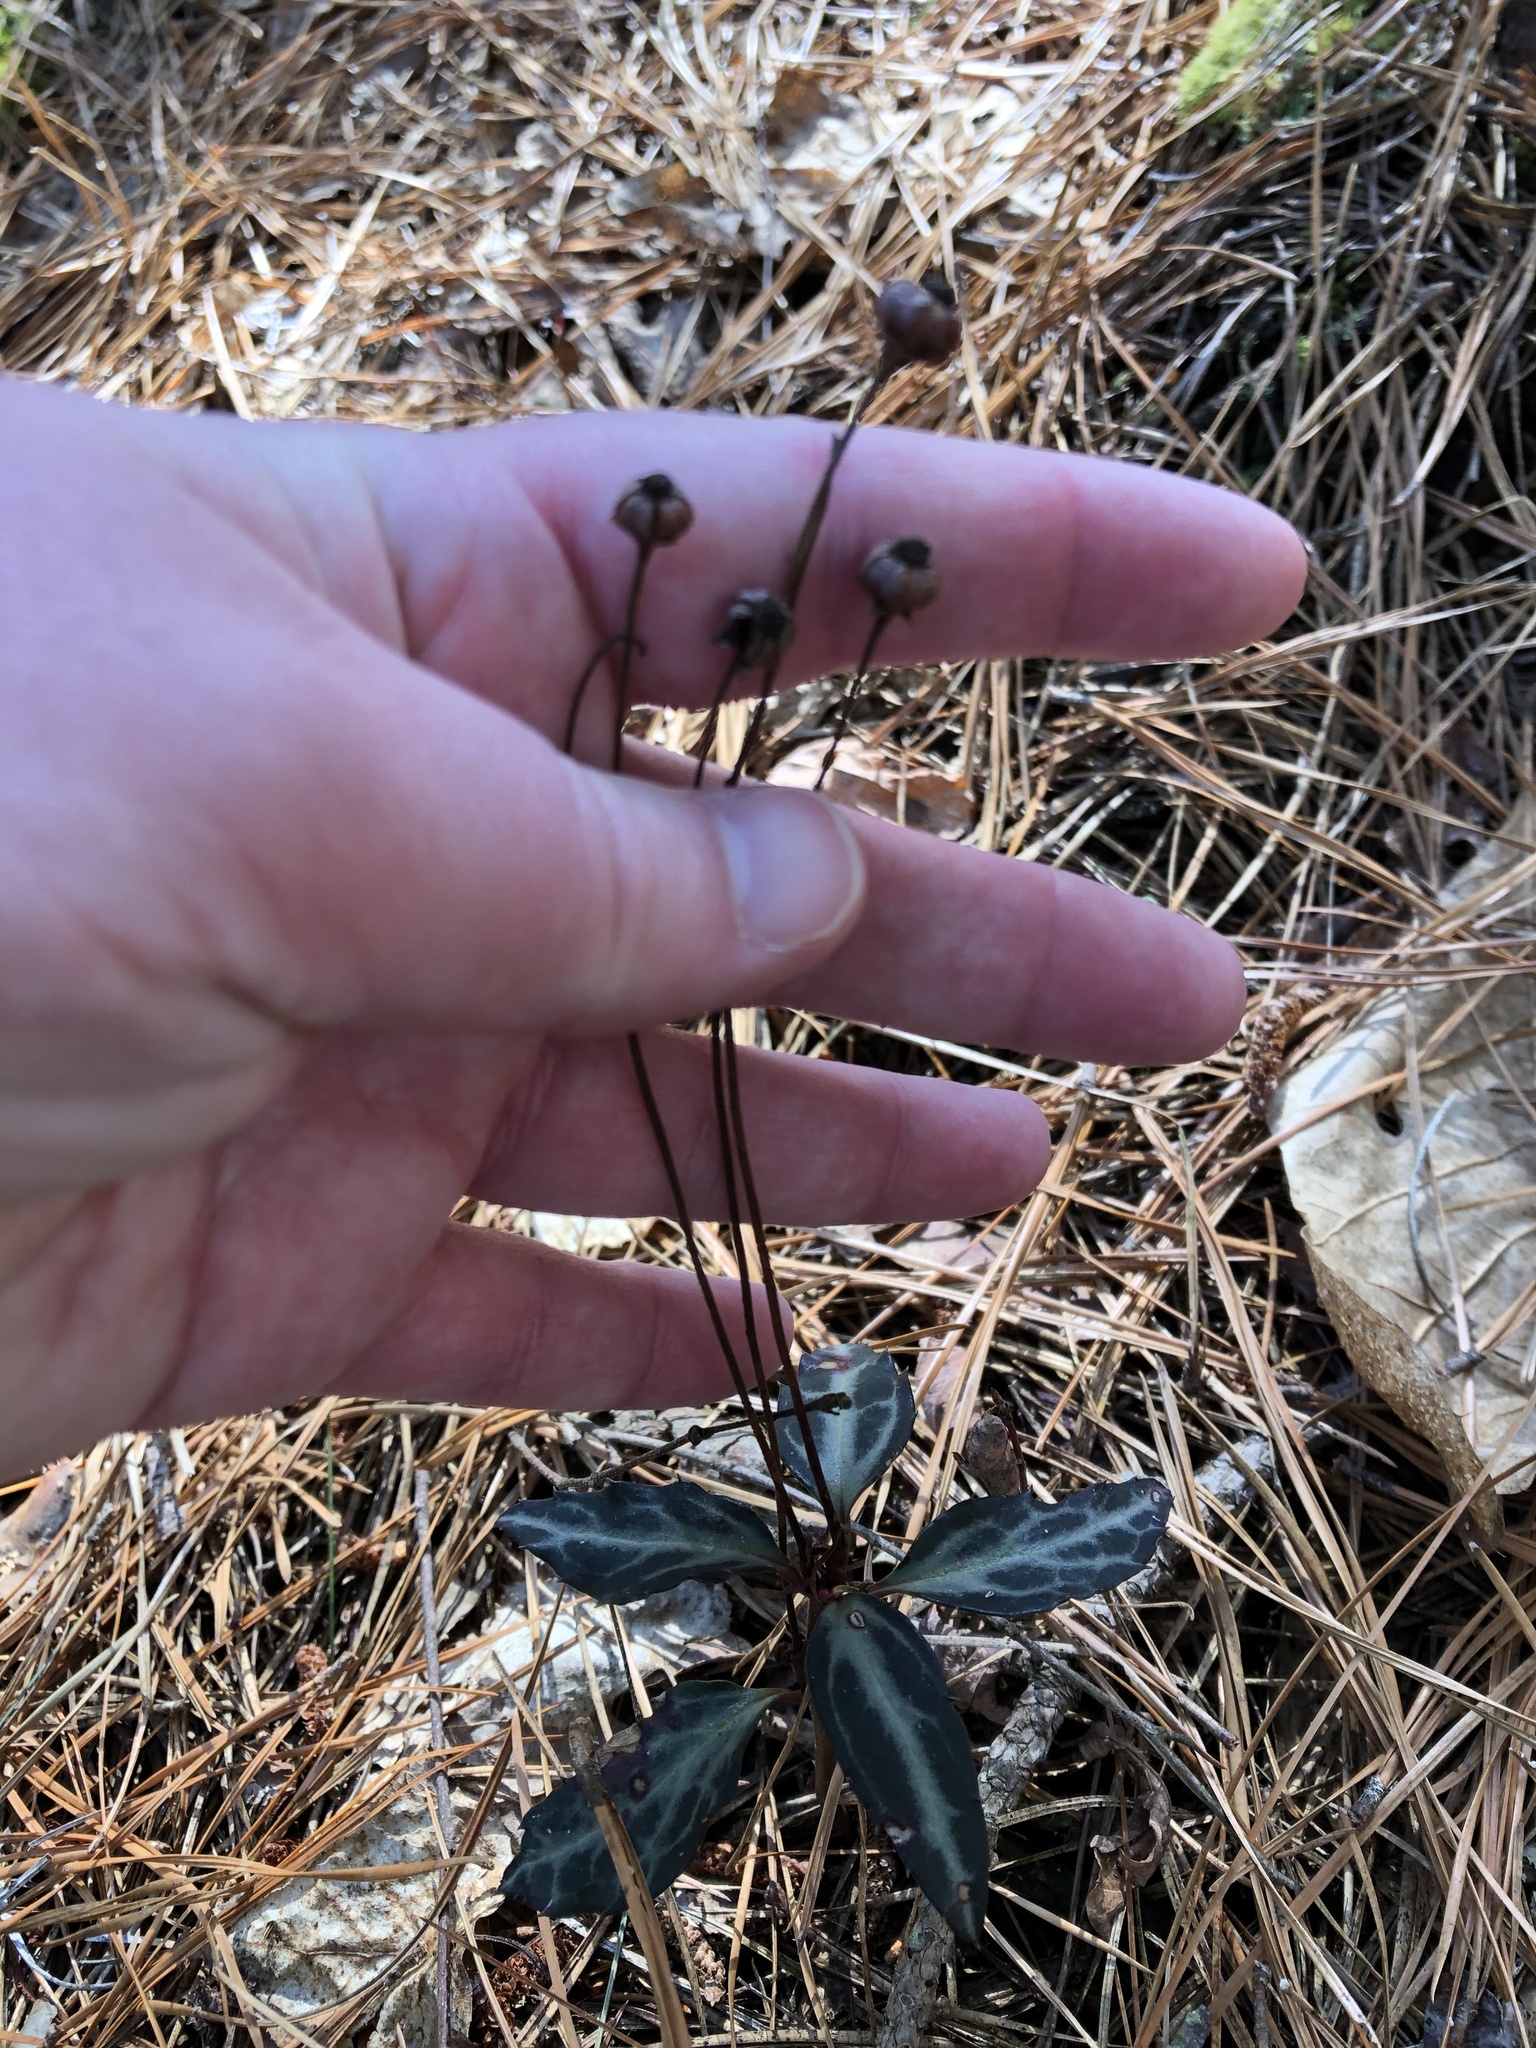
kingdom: Plantae
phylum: Tracheophyta
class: Magnoliopsida
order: Ericales
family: Ericaceae
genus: Chimaphila
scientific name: Chimaphila maculata
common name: Spotted pipsissewa
